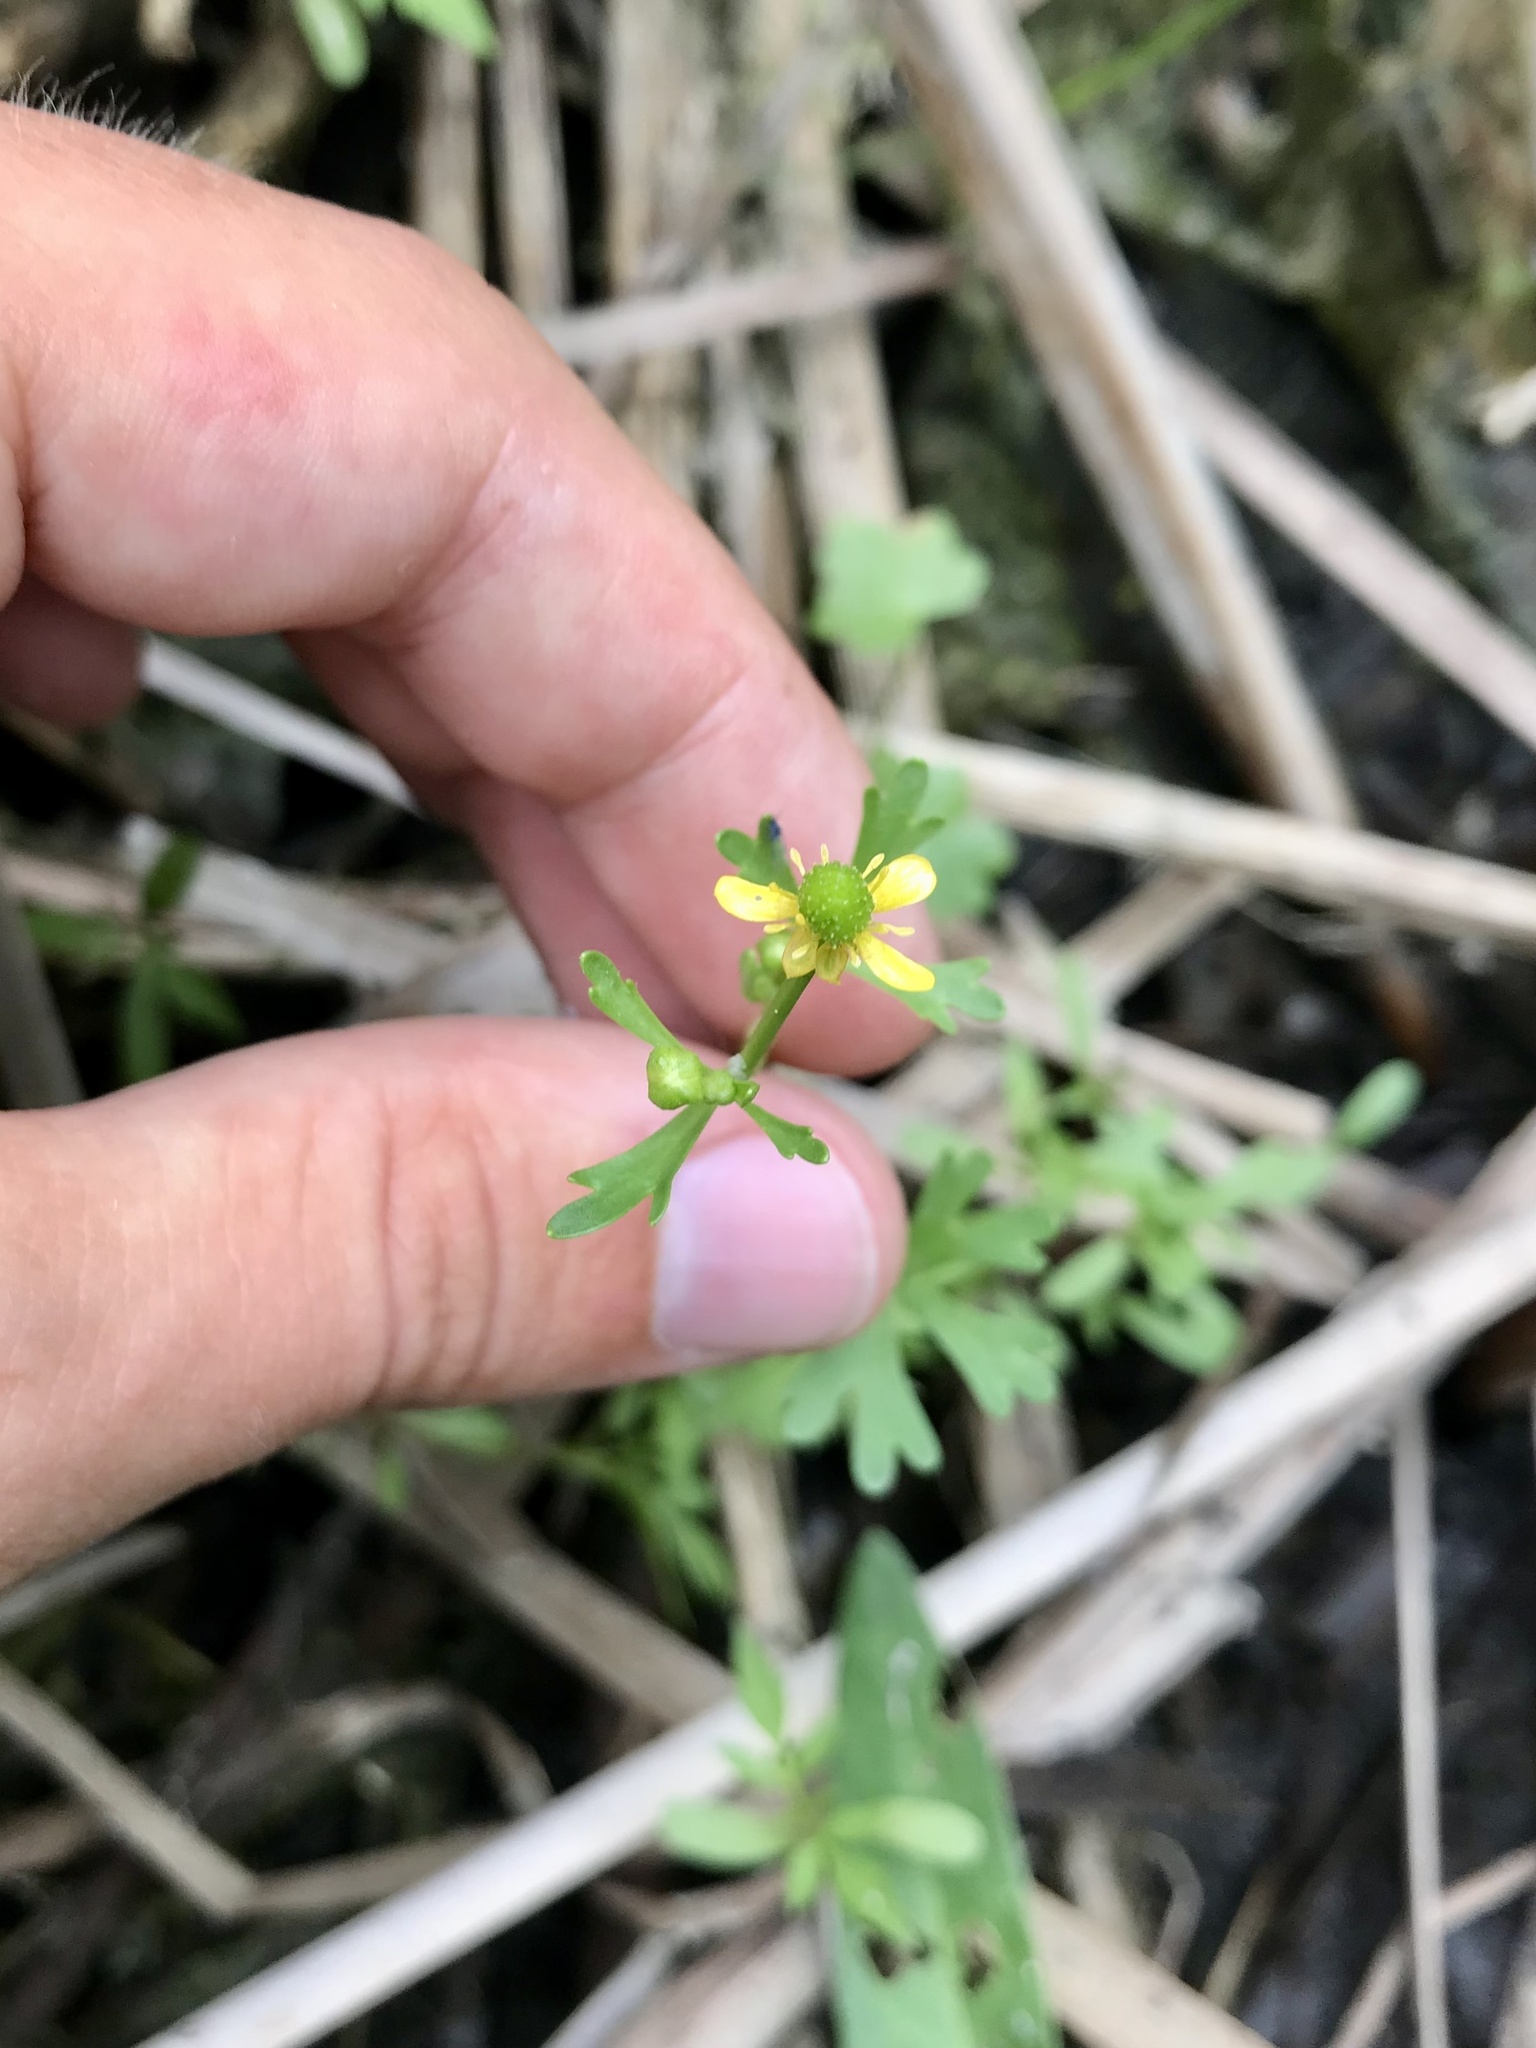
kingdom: Plantae
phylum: Tracheophyta
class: Magnoliopsida
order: Ranunculales
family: Ranunculaceae
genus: Ranunculus
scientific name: Ranunculus sceleratus
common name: Celery-leaved buttercup
